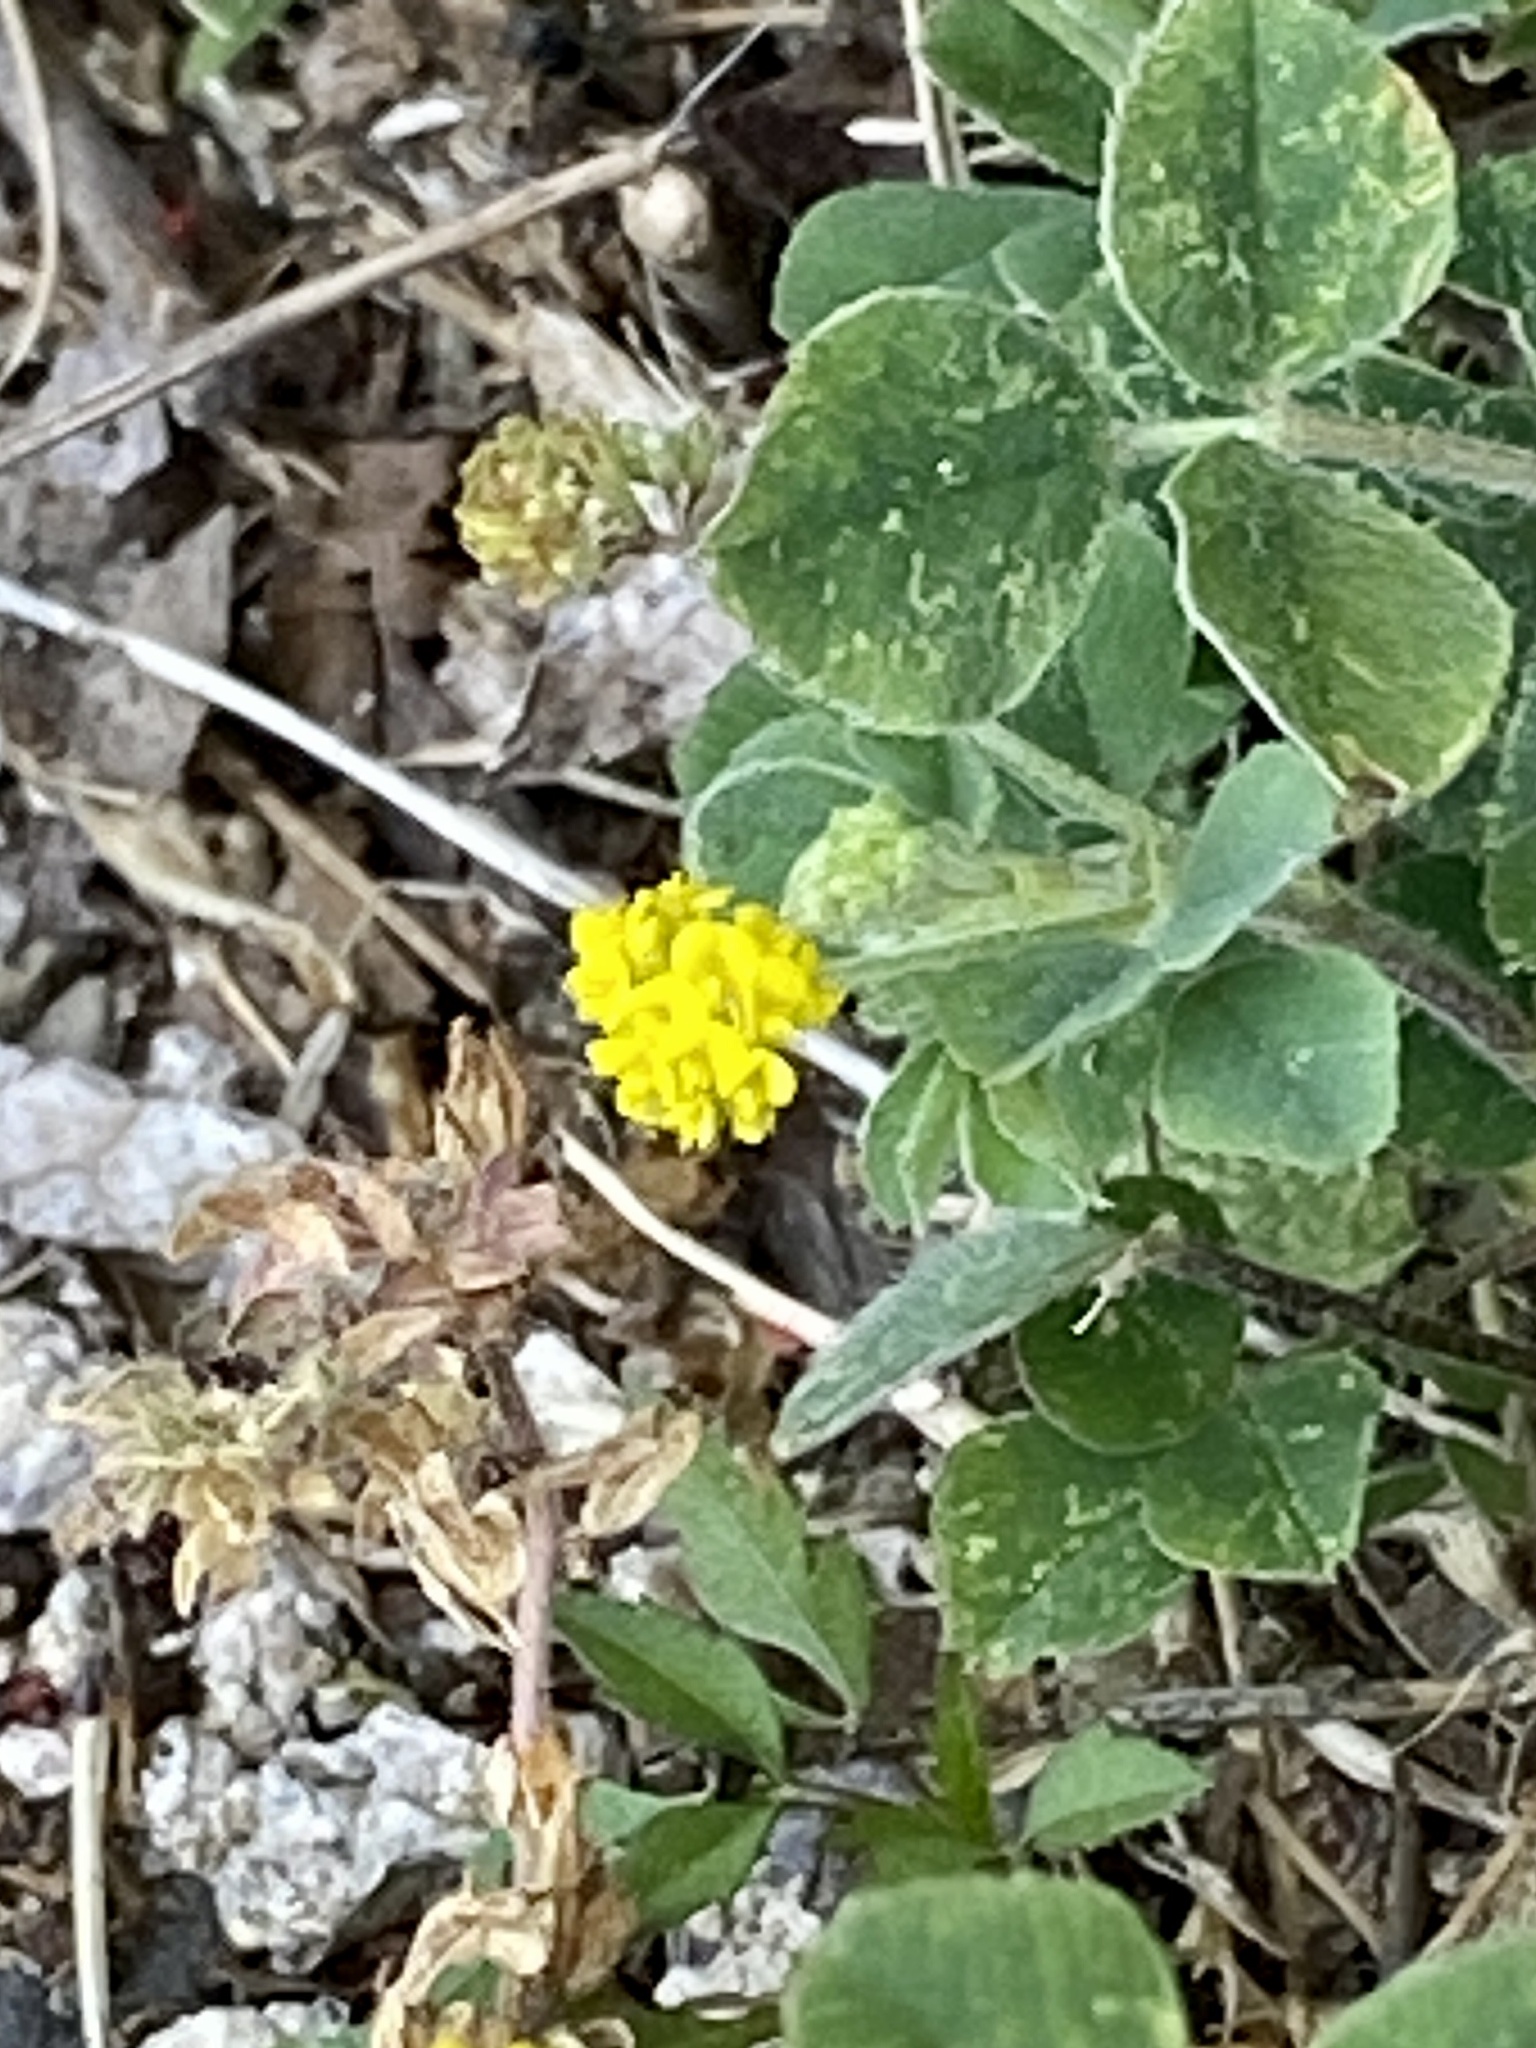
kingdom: Plantae
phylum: Tracheophyta
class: Magnoliopsida
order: Fabales
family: Fabaceae
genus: Medicago
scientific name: Medicago lupulina
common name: Black medick
